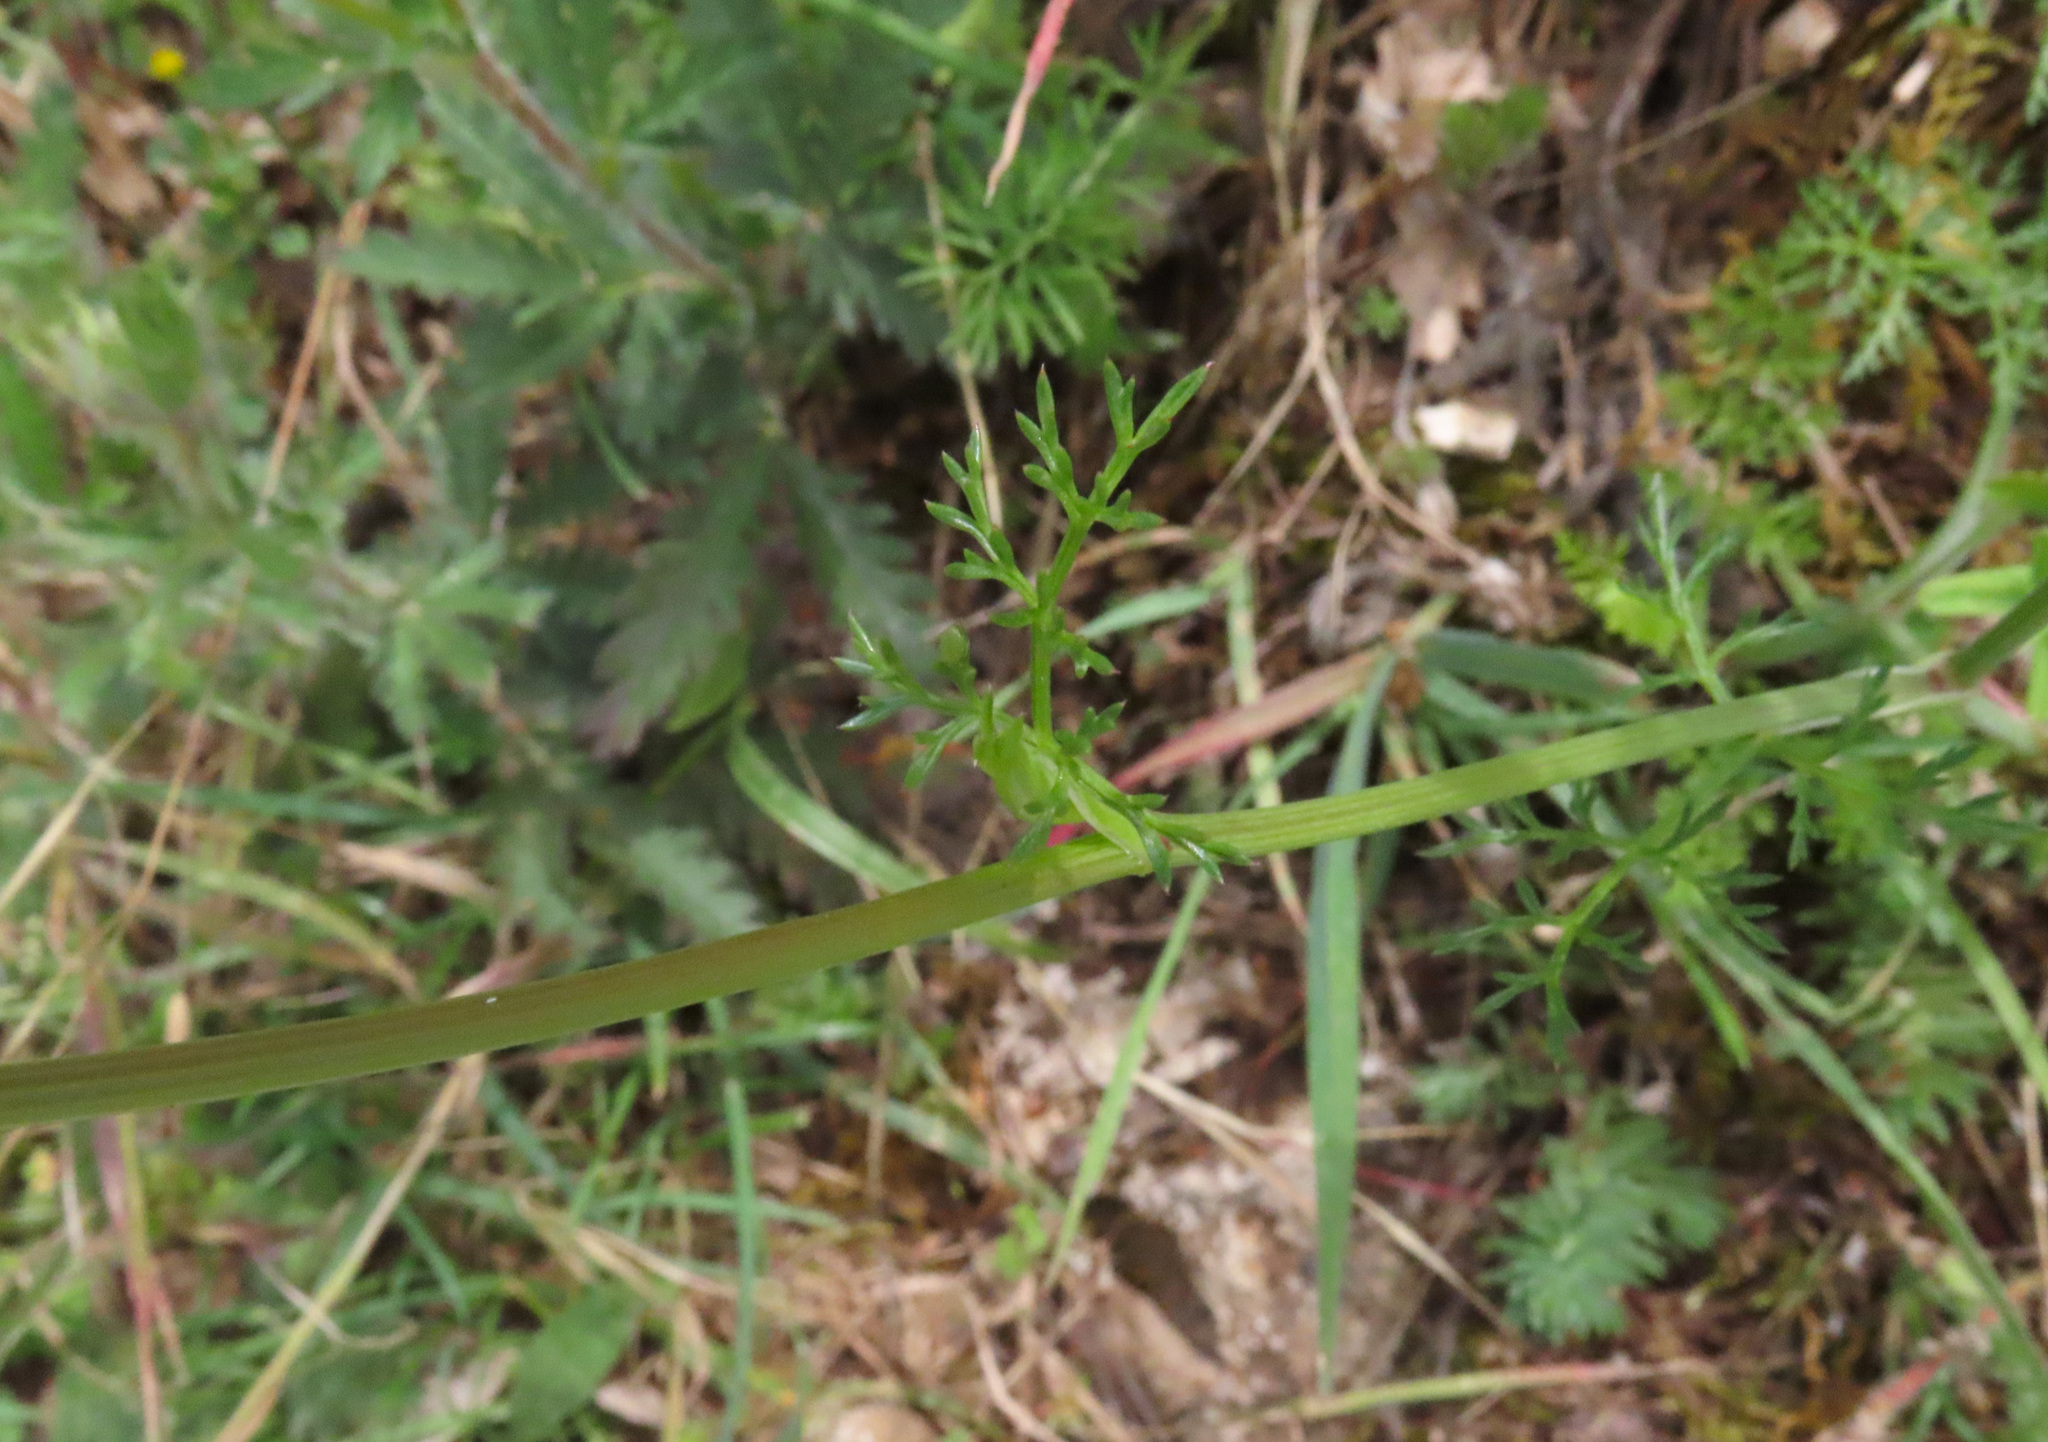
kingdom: Plantae
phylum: Tracheophyta
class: Magnoliopsida
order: Apiales
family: Apiaceae
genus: Orlaya
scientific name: Orlaya grandiflora
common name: White lace flower
